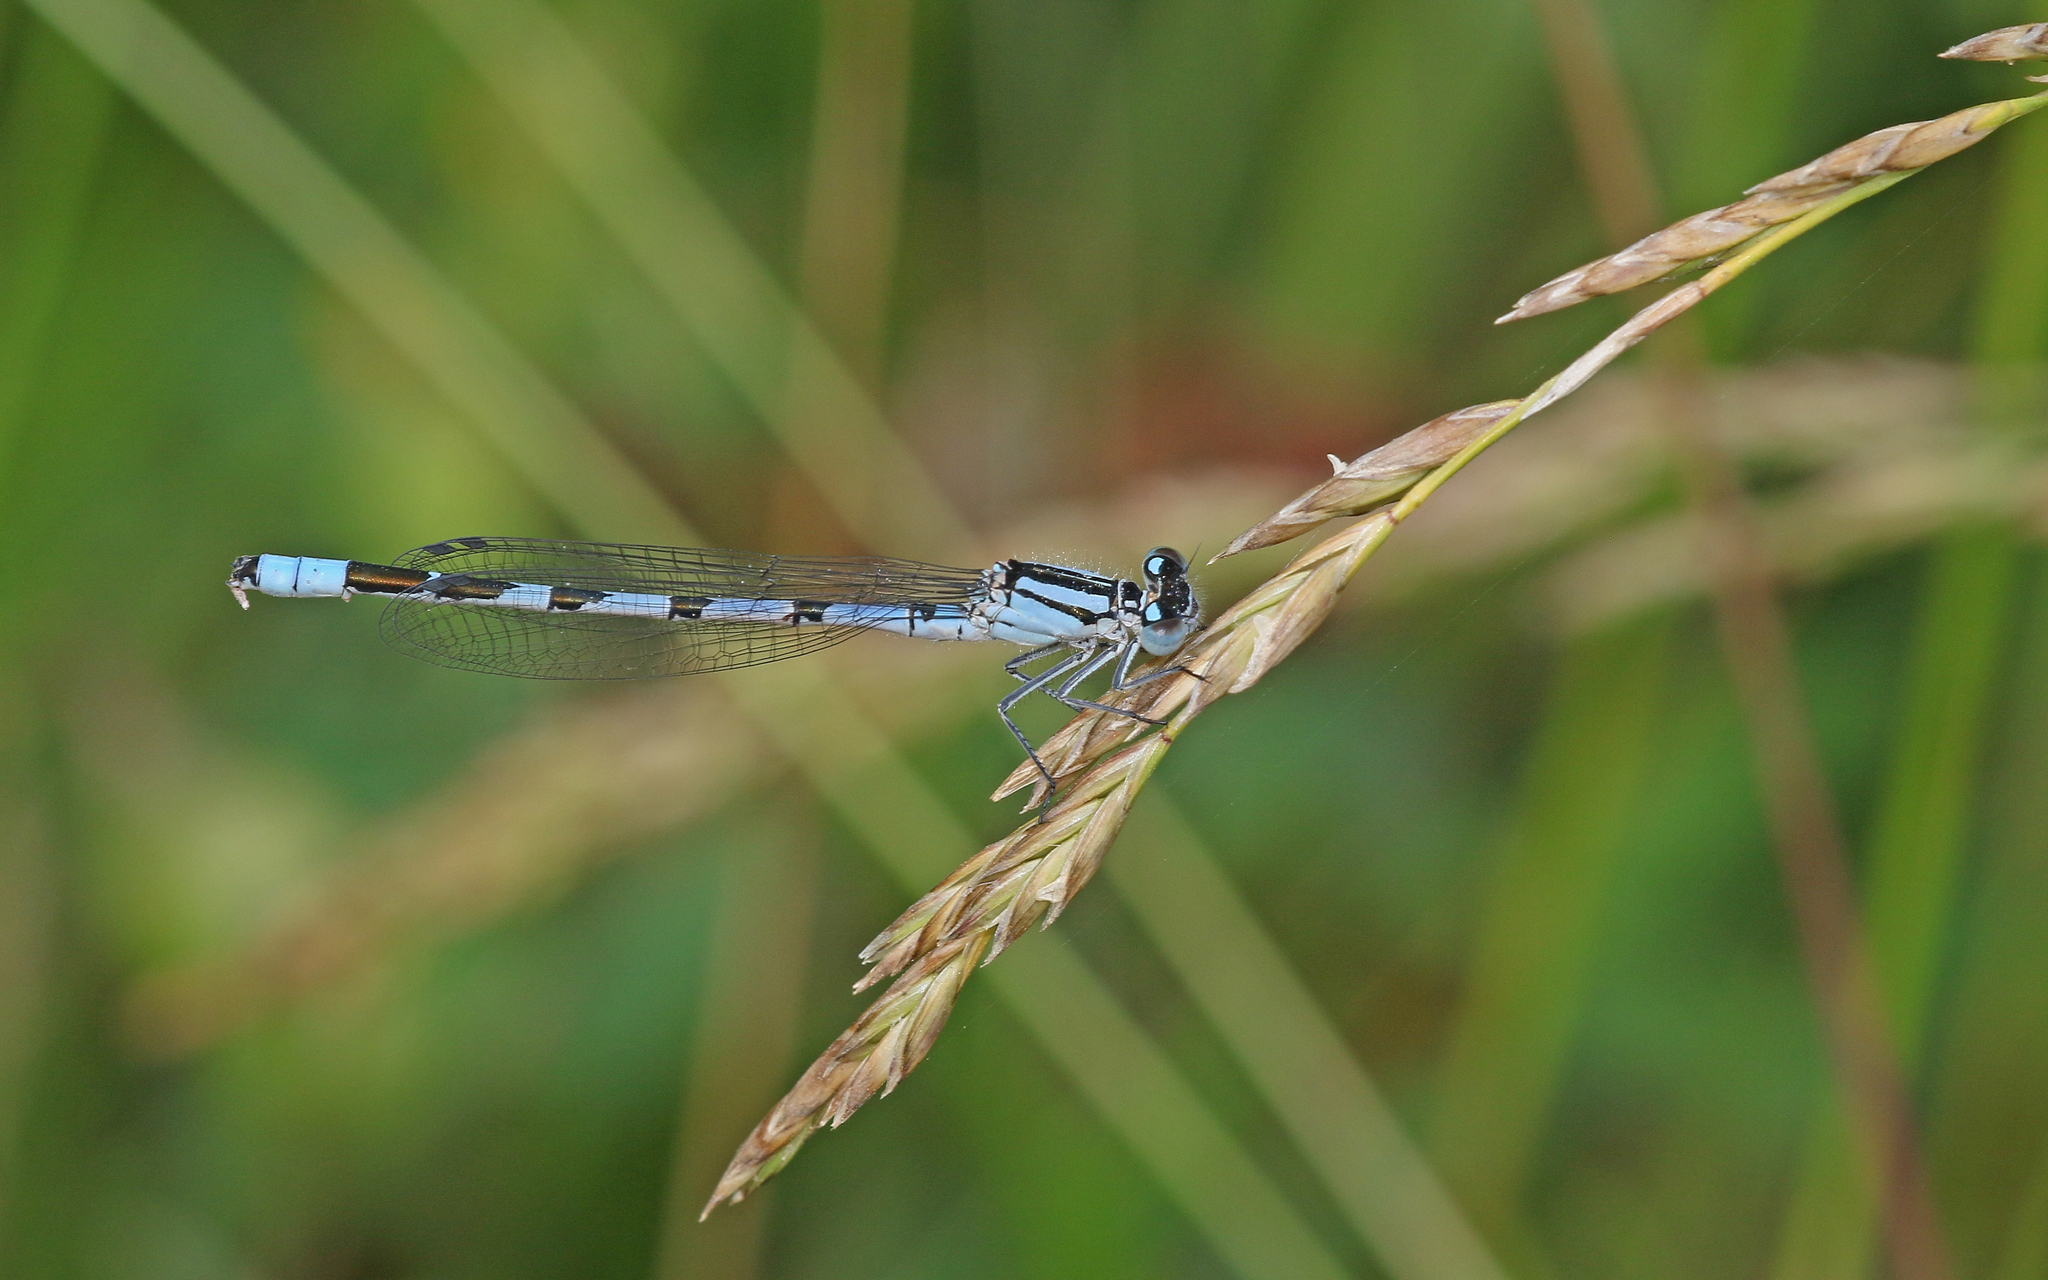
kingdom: Animalia
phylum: Arthropoda
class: Insecta
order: Odonata
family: Coenagrionidae
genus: Enallagma
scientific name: Enallagma cyathigerum
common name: Common blue damselfly
